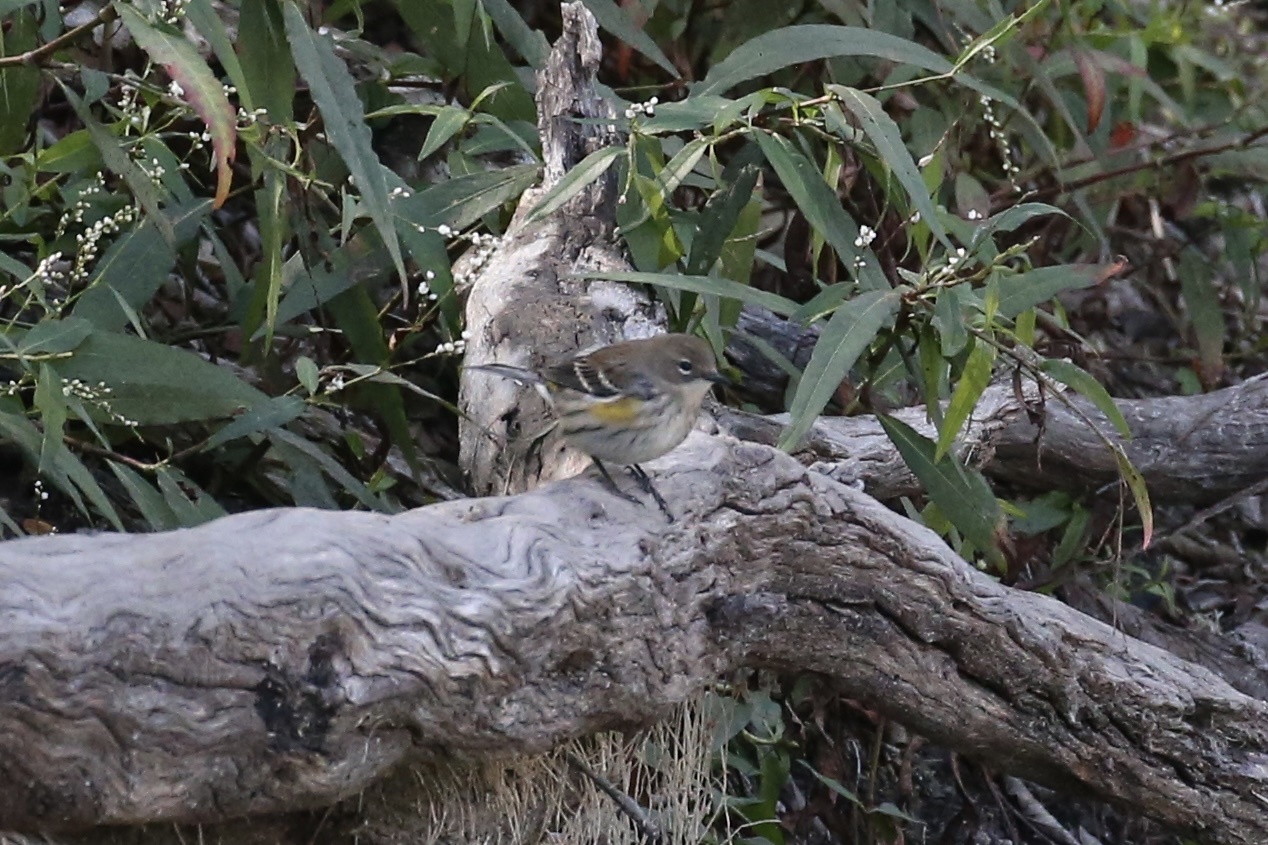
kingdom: Animalia
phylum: Chordata
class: Aves
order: Passeriformes
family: Parulidae
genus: Setophaga
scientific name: Setophaga coronata
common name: Myrtle warbler
